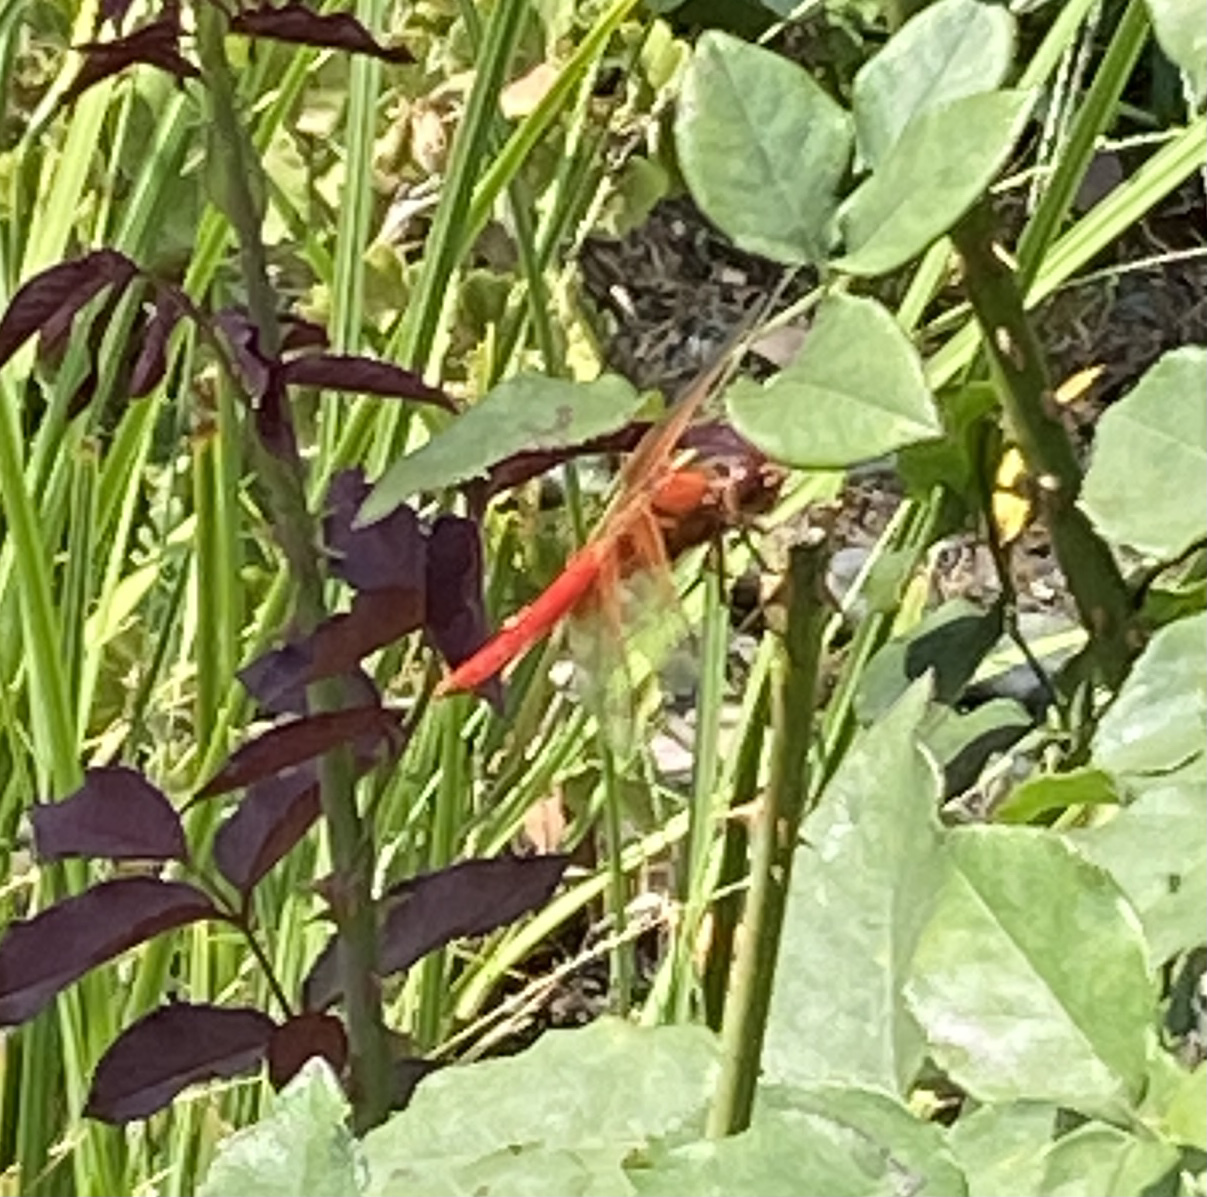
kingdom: Animalia
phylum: Arthropoda
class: Insecta
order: Odonata
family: Libellulidae
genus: Libellula
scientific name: Libellula croceipennis
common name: Neon skimmer
